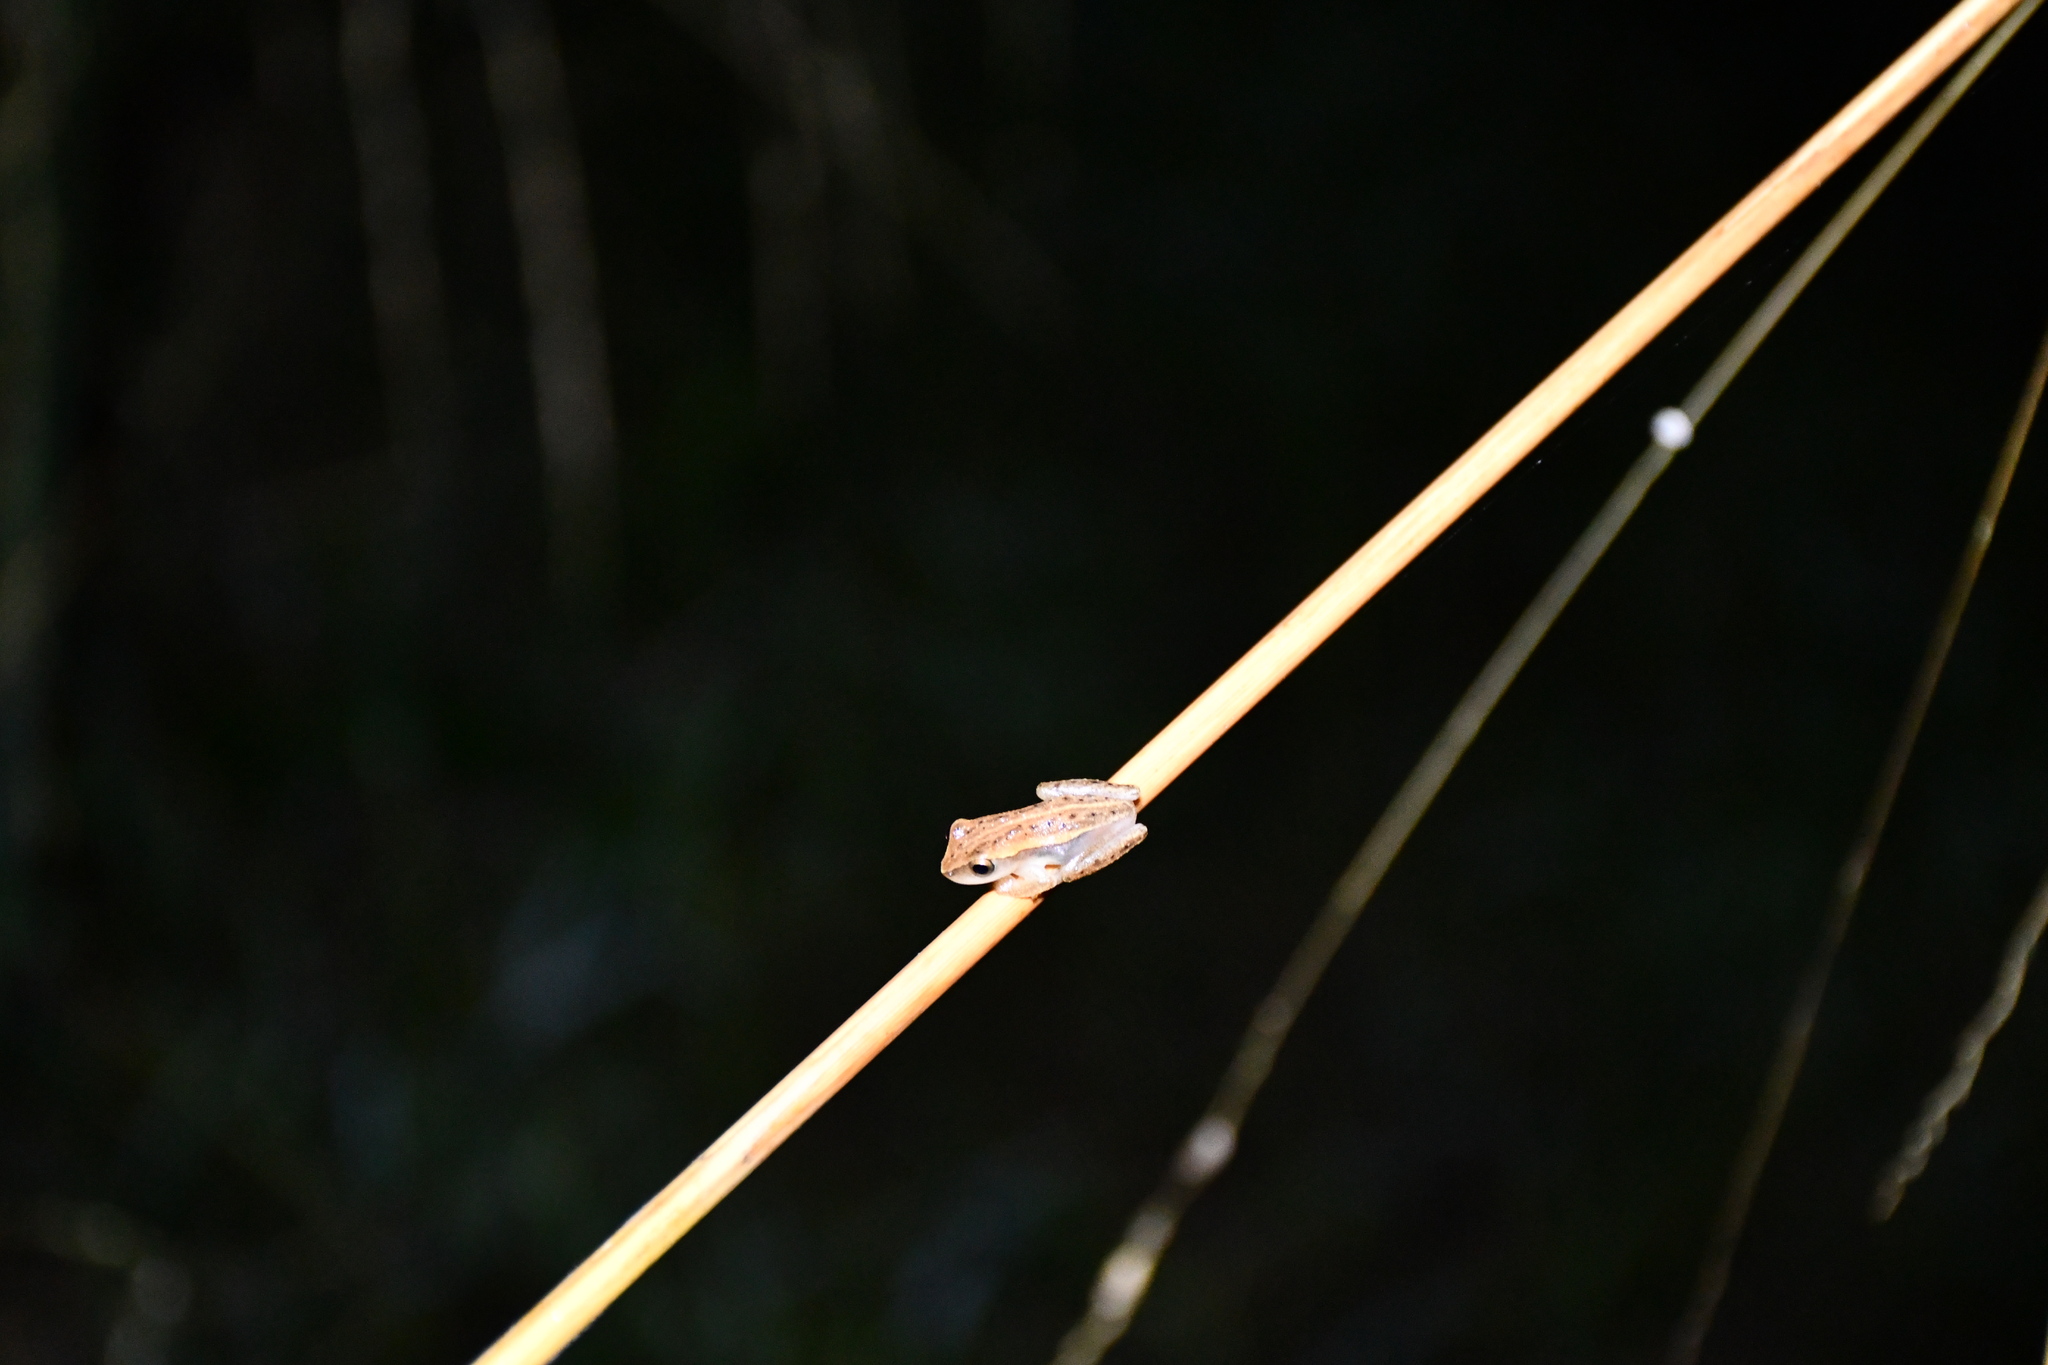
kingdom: Animalia
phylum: Chordata
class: Amphibia
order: Anura
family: Hylidae
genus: Dendropsophus
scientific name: Dendropsophus walfordi
